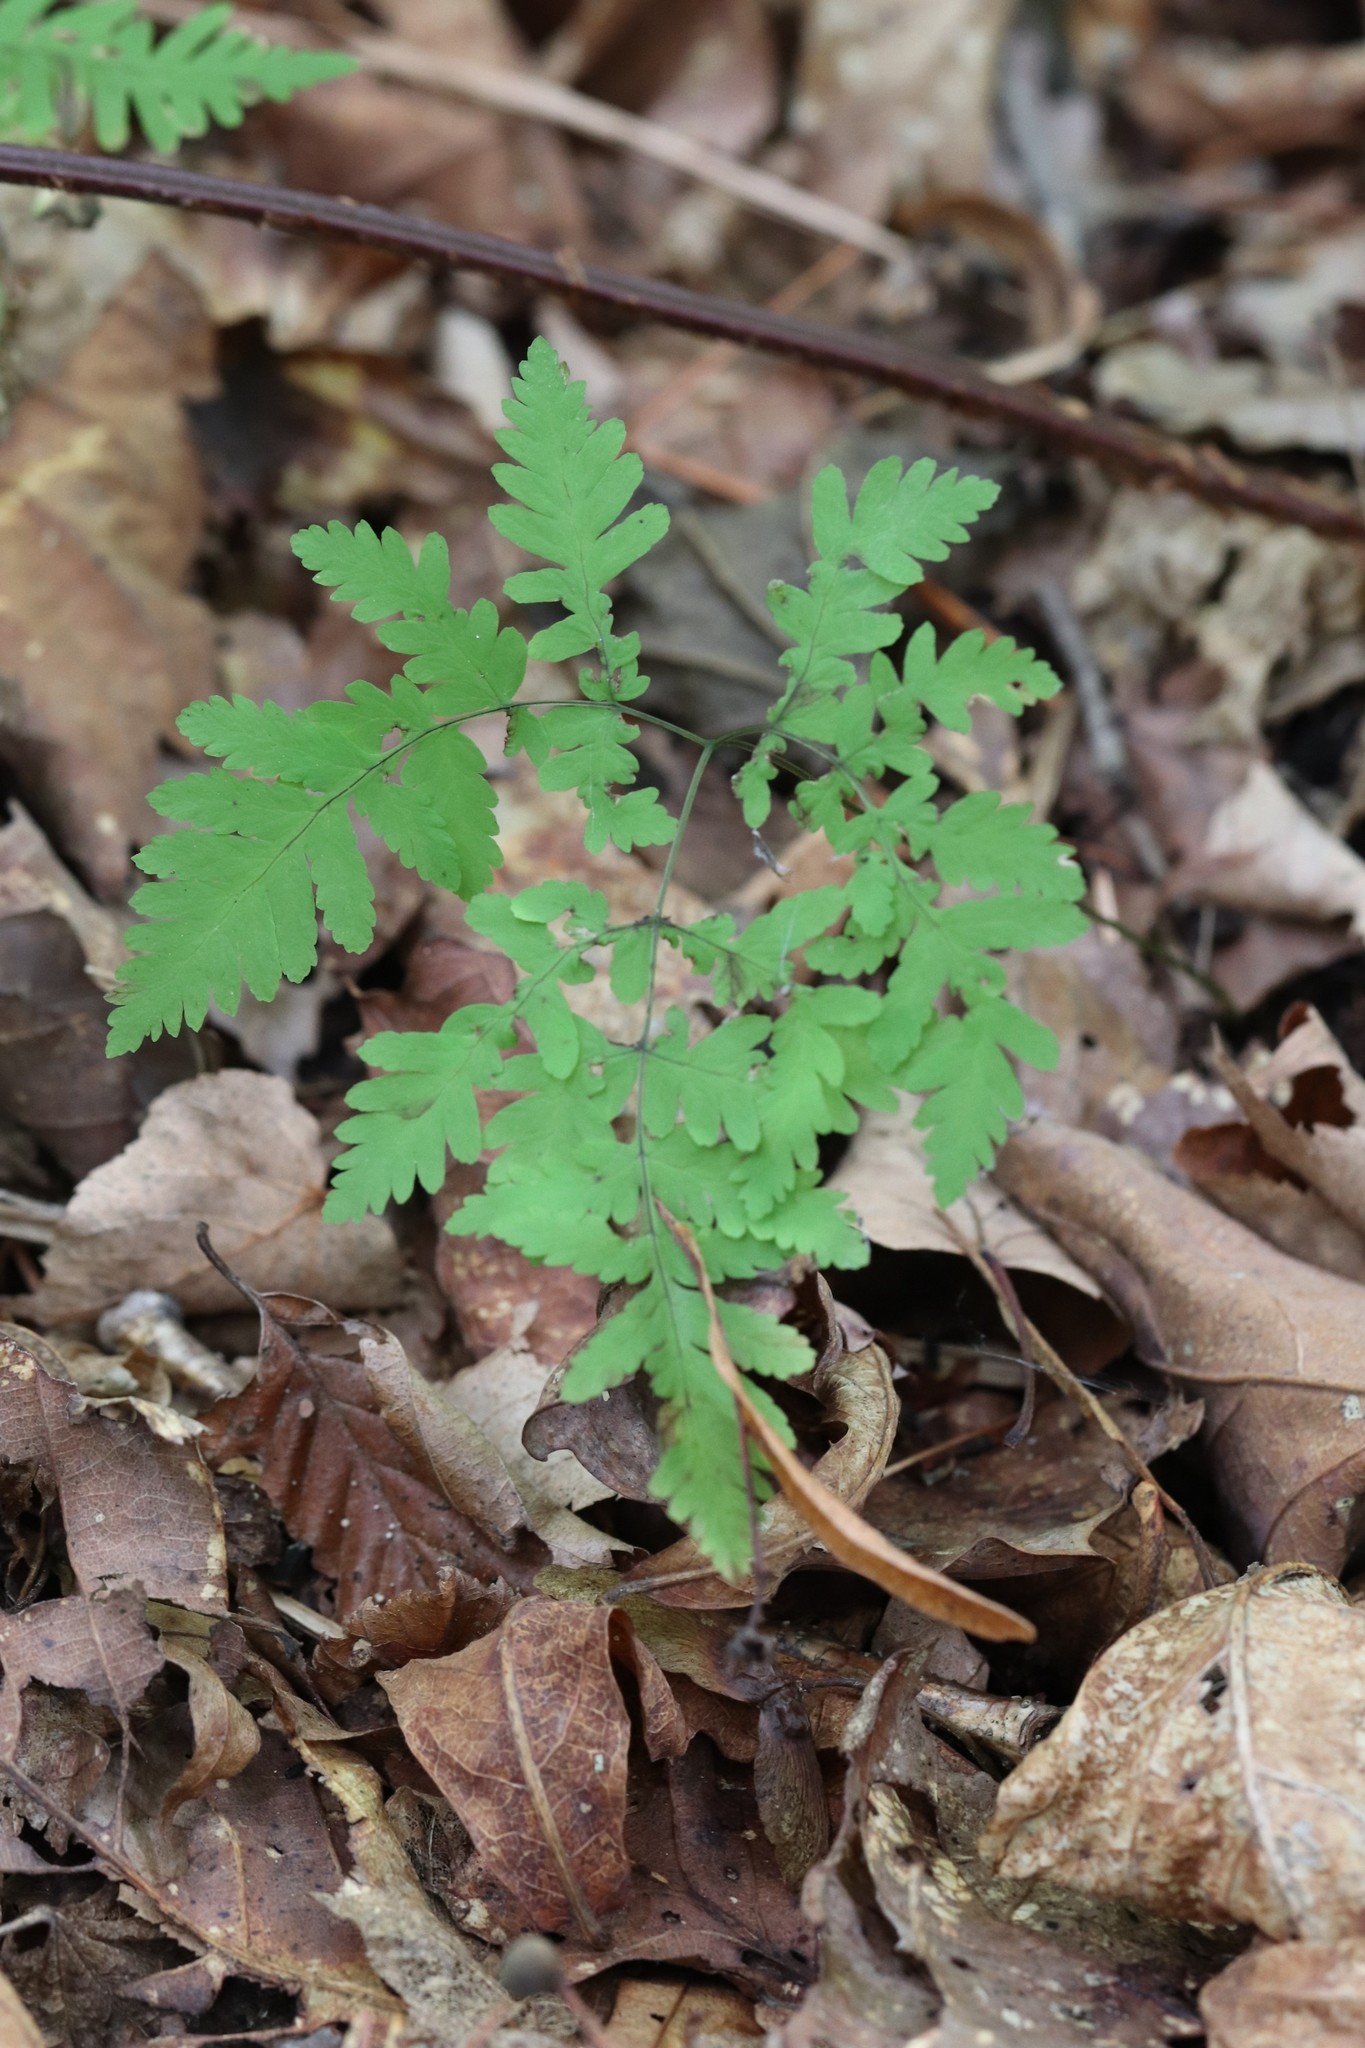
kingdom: Plantae
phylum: Tracheophyta
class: Polypodiopsida
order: Polypodiales
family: Cystopteridaceae
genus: Gymnocarpium
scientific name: Gymnocarpium dryopteris
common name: Oak fern
